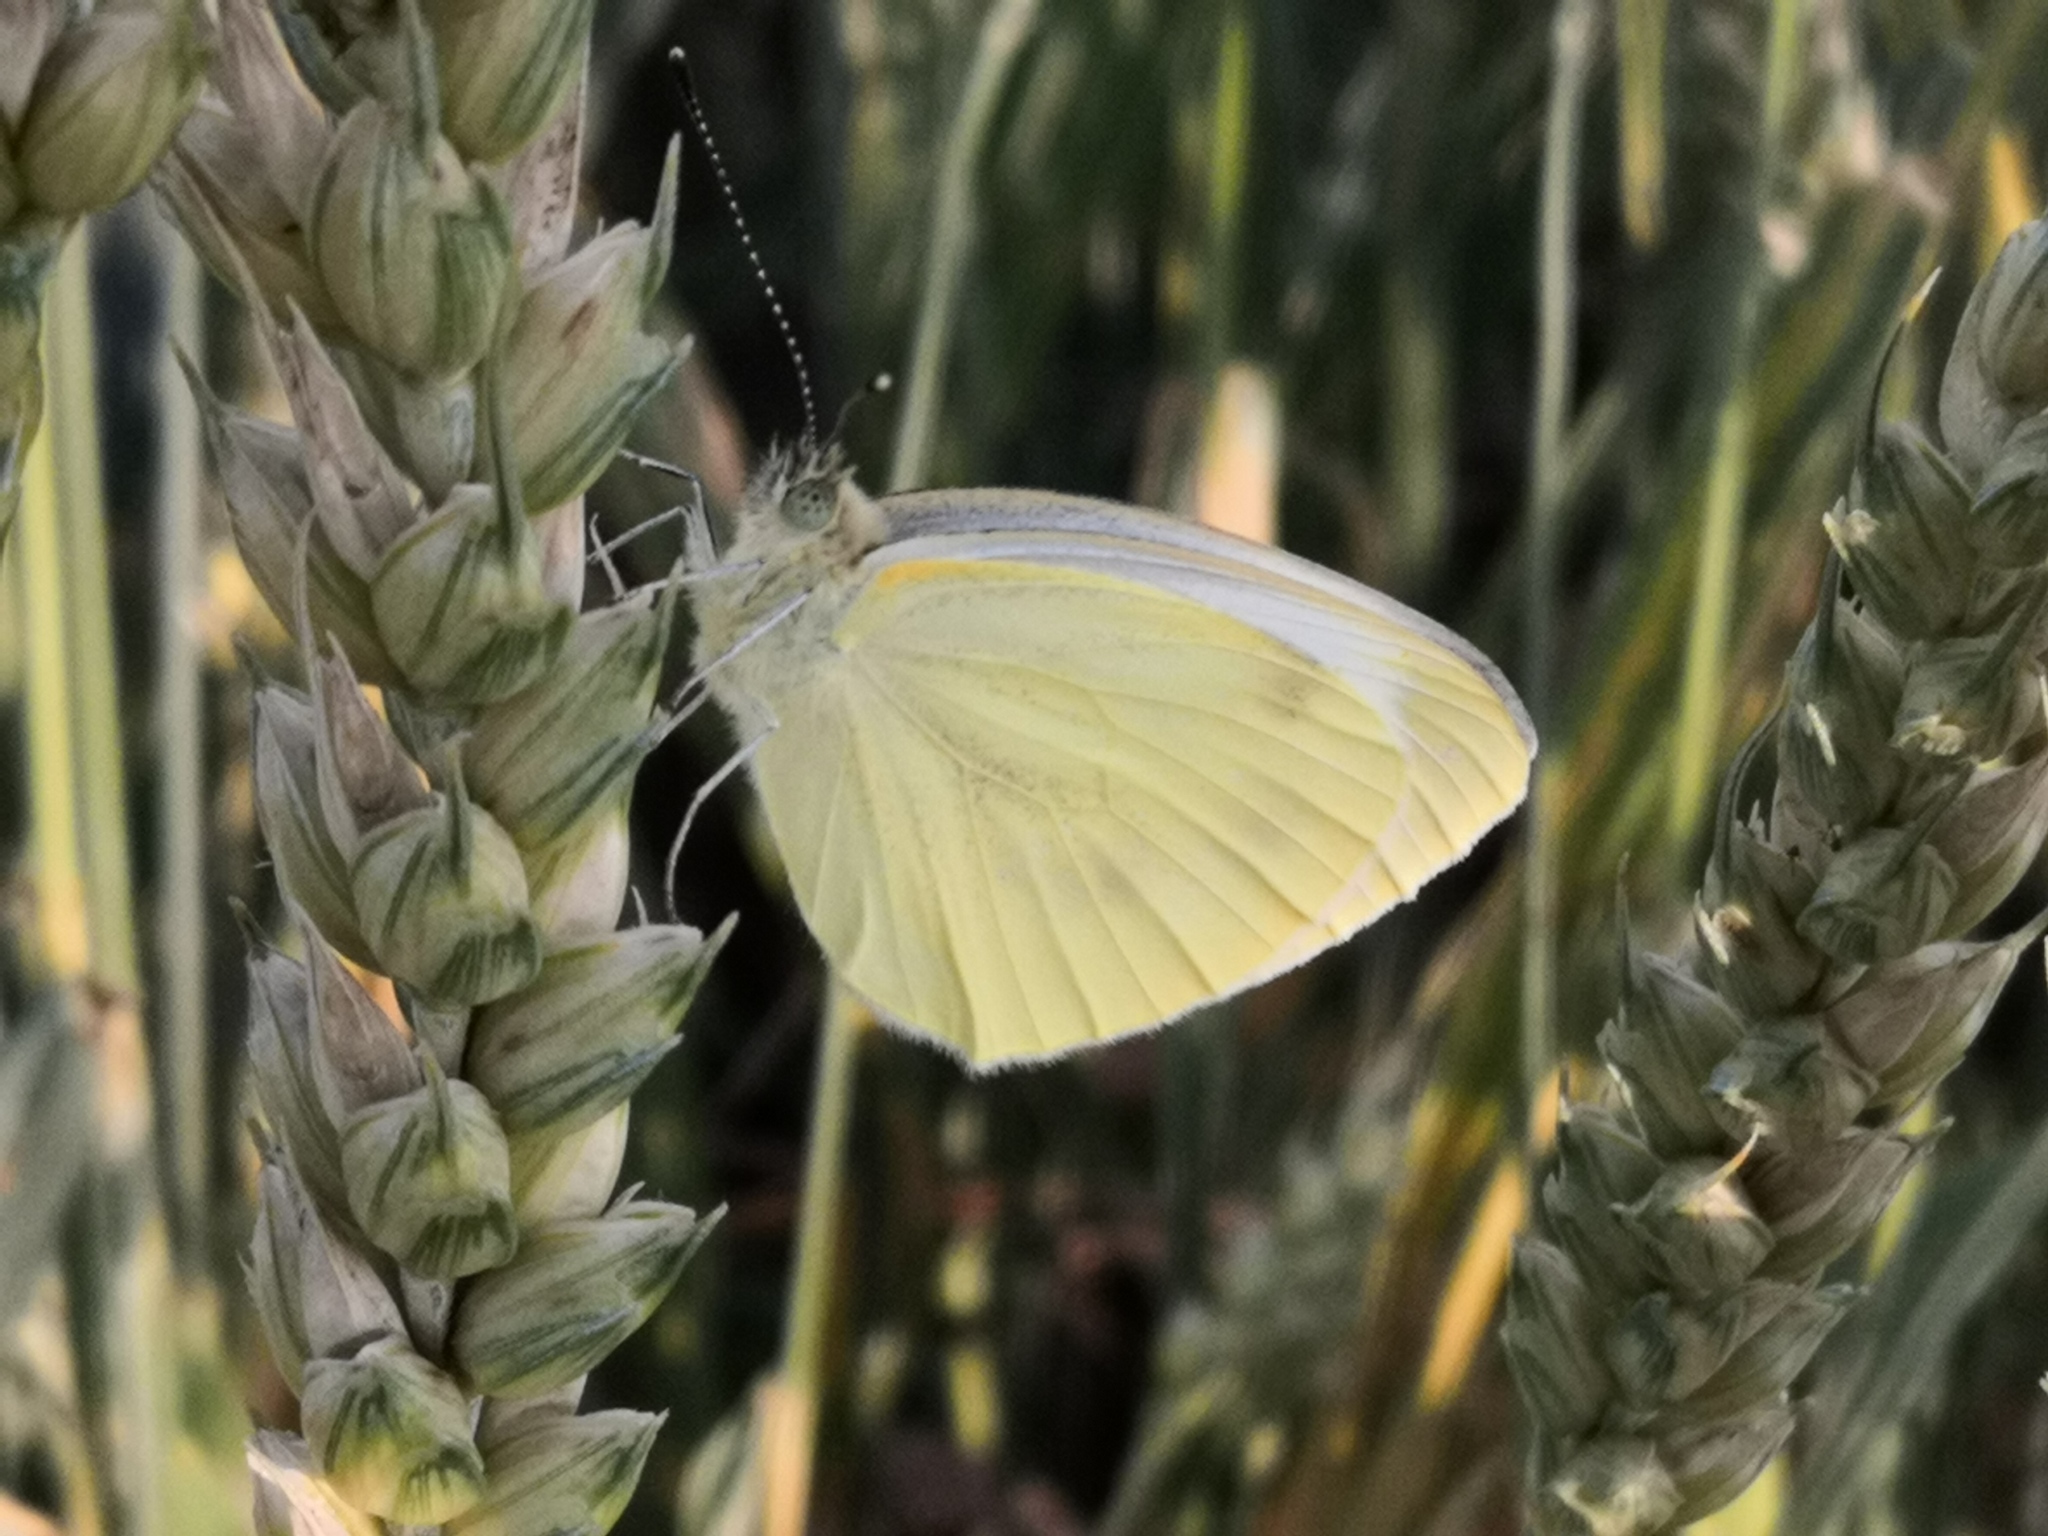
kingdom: Animalia
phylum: Arthropoda
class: Insecta
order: Lepidoptera
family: Pieridae
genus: Pieris
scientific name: Pieris rapae
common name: Small white
